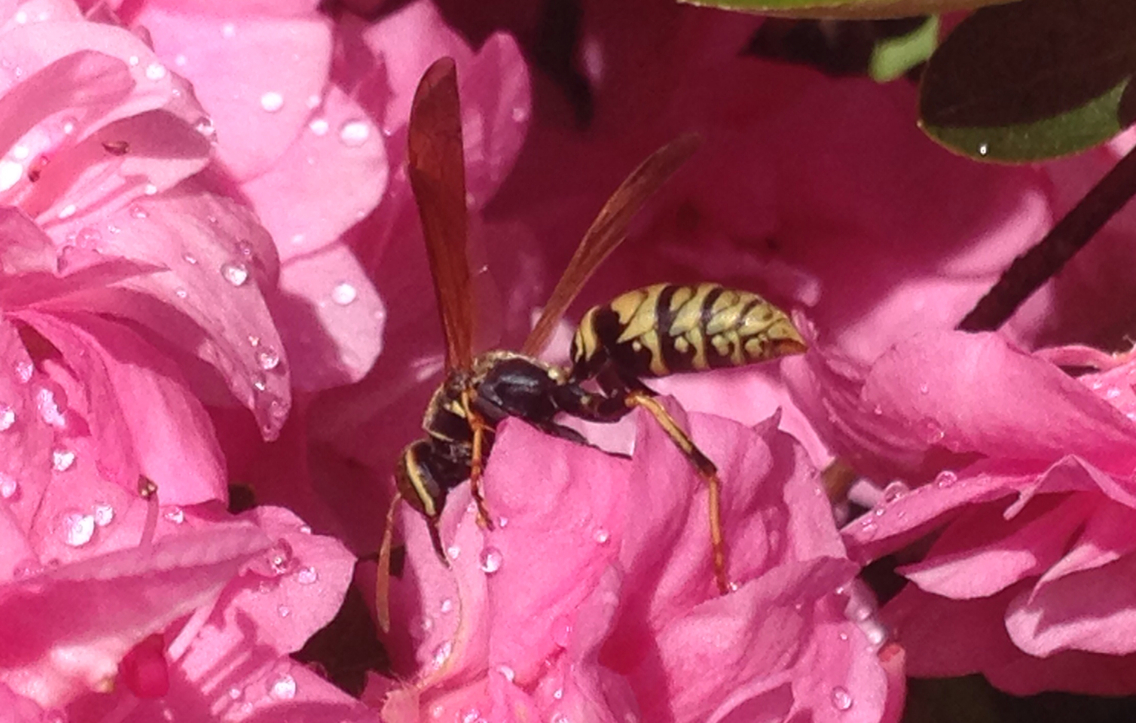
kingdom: Animalia
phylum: Arthropoda
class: Insecta
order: Hymenoptera
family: Eumenidae
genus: Polistes
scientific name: Polistes aurifer
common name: Paper wasp
